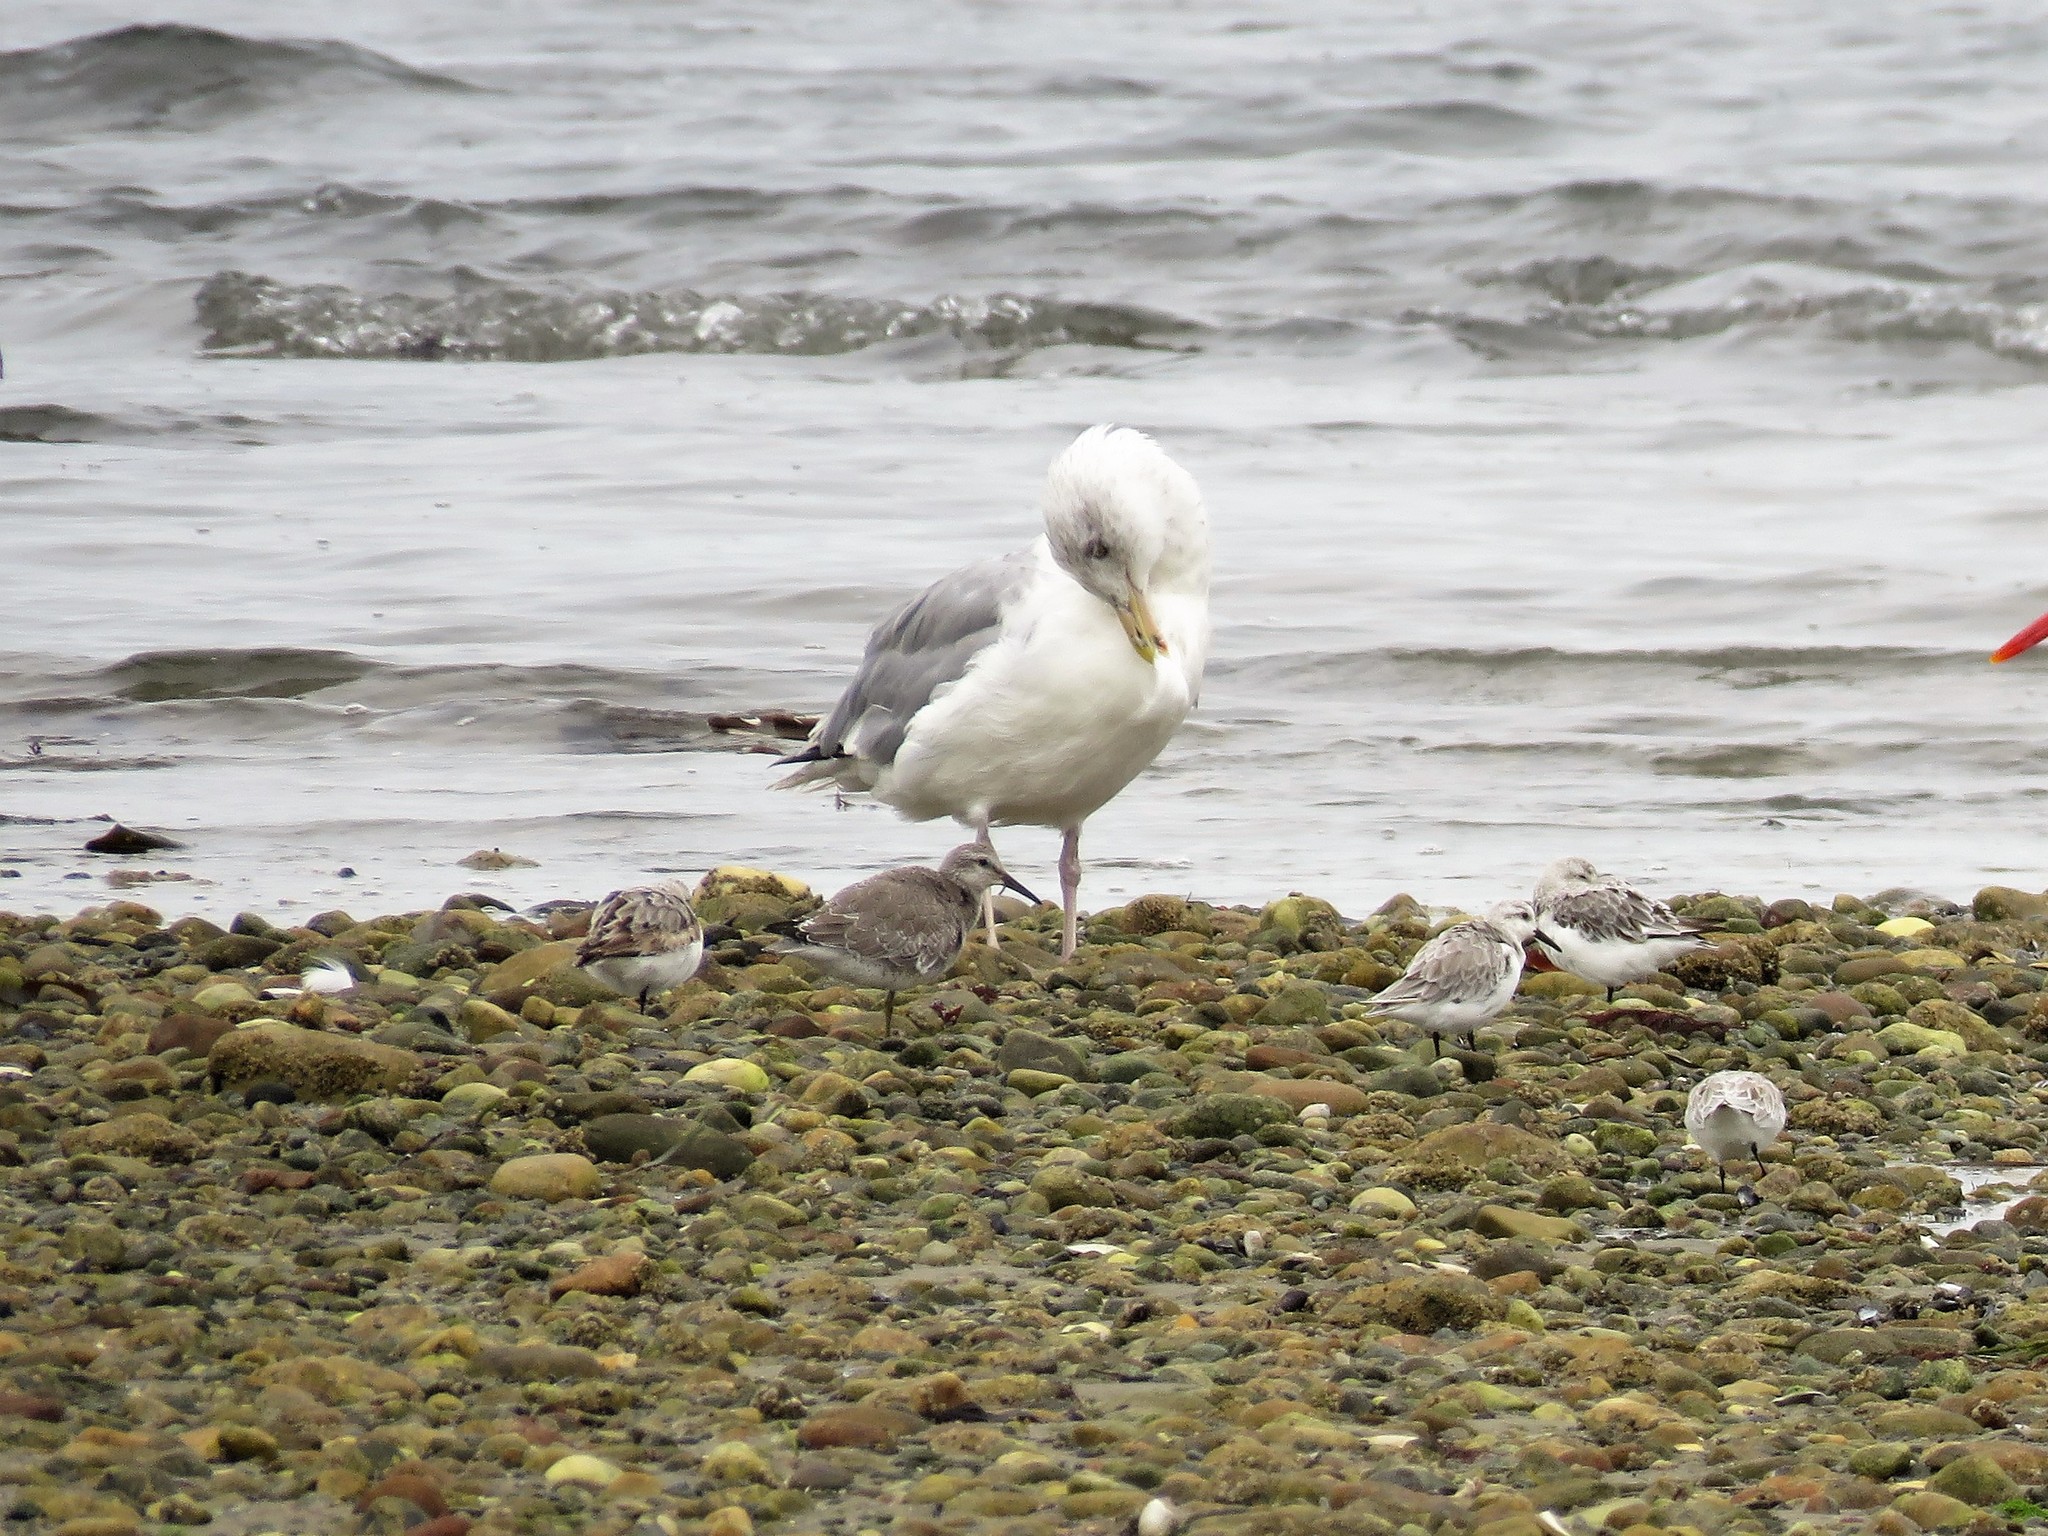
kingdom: Animalia
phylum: Chordata
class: Aves
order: Charadriiformes
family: Laridae
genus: Larus
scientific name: Larus argentatus
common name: Herring gull
